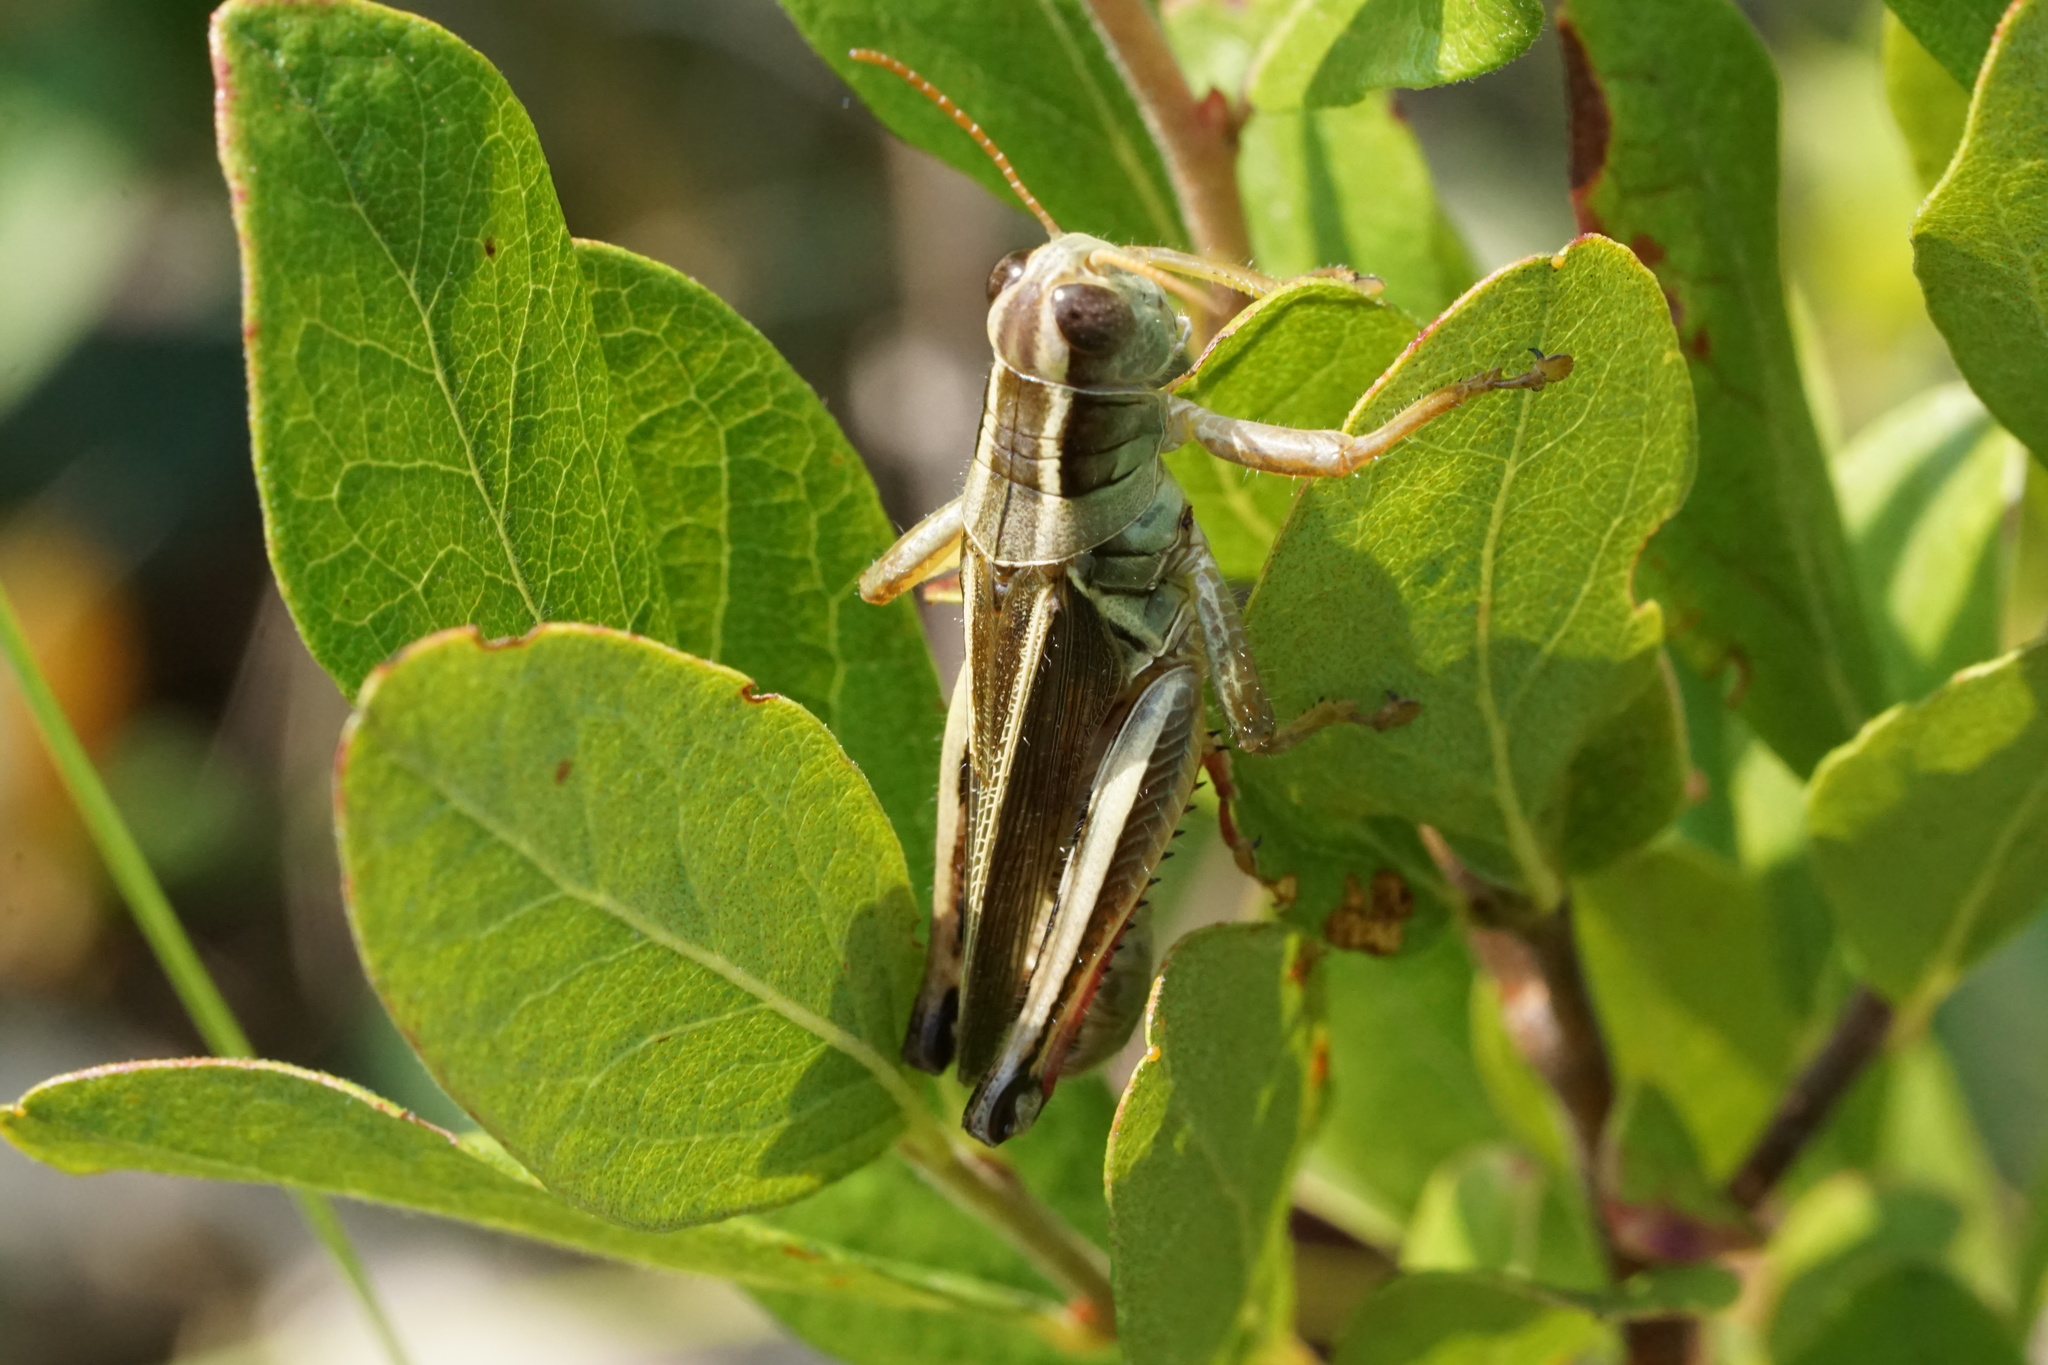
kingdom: Animalia
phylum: Arthropoda
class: Insecta
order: Orthoptera
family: Acrididae
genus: Melanoplus
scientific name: Melanoplus bivittatus
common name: Two-striped grasshopper
